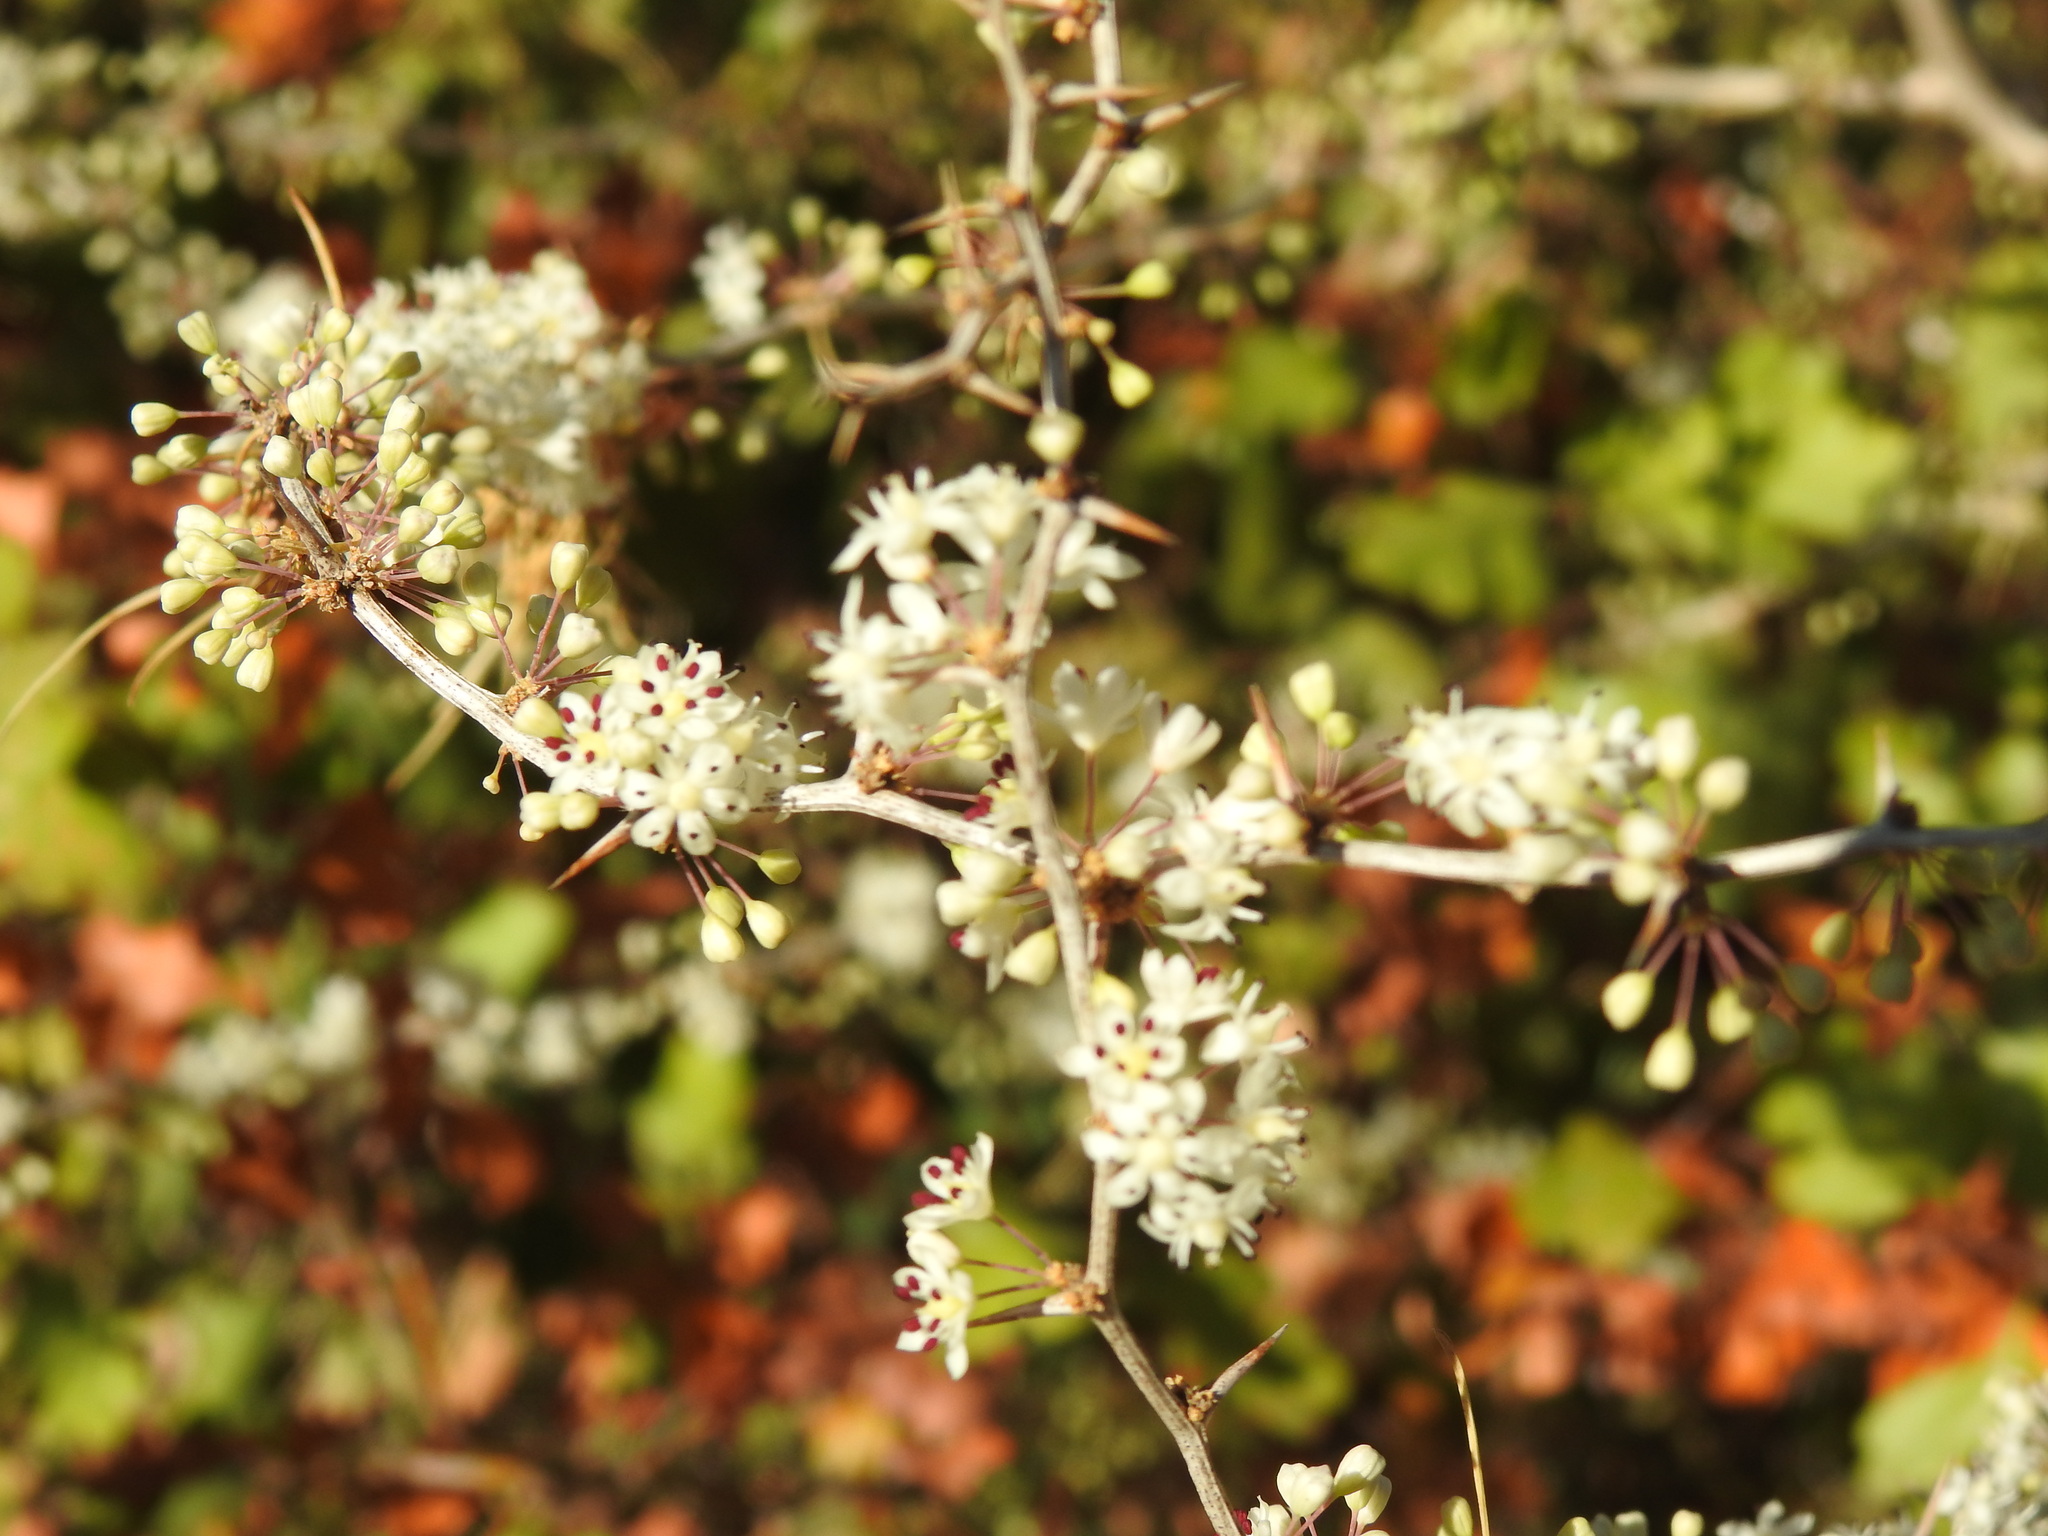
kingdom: Plantae
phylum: Tracheophyta
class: Liliopsida
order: Asparagales
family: Asparagaceae
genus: Asparagus
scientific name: Asparagus albus
